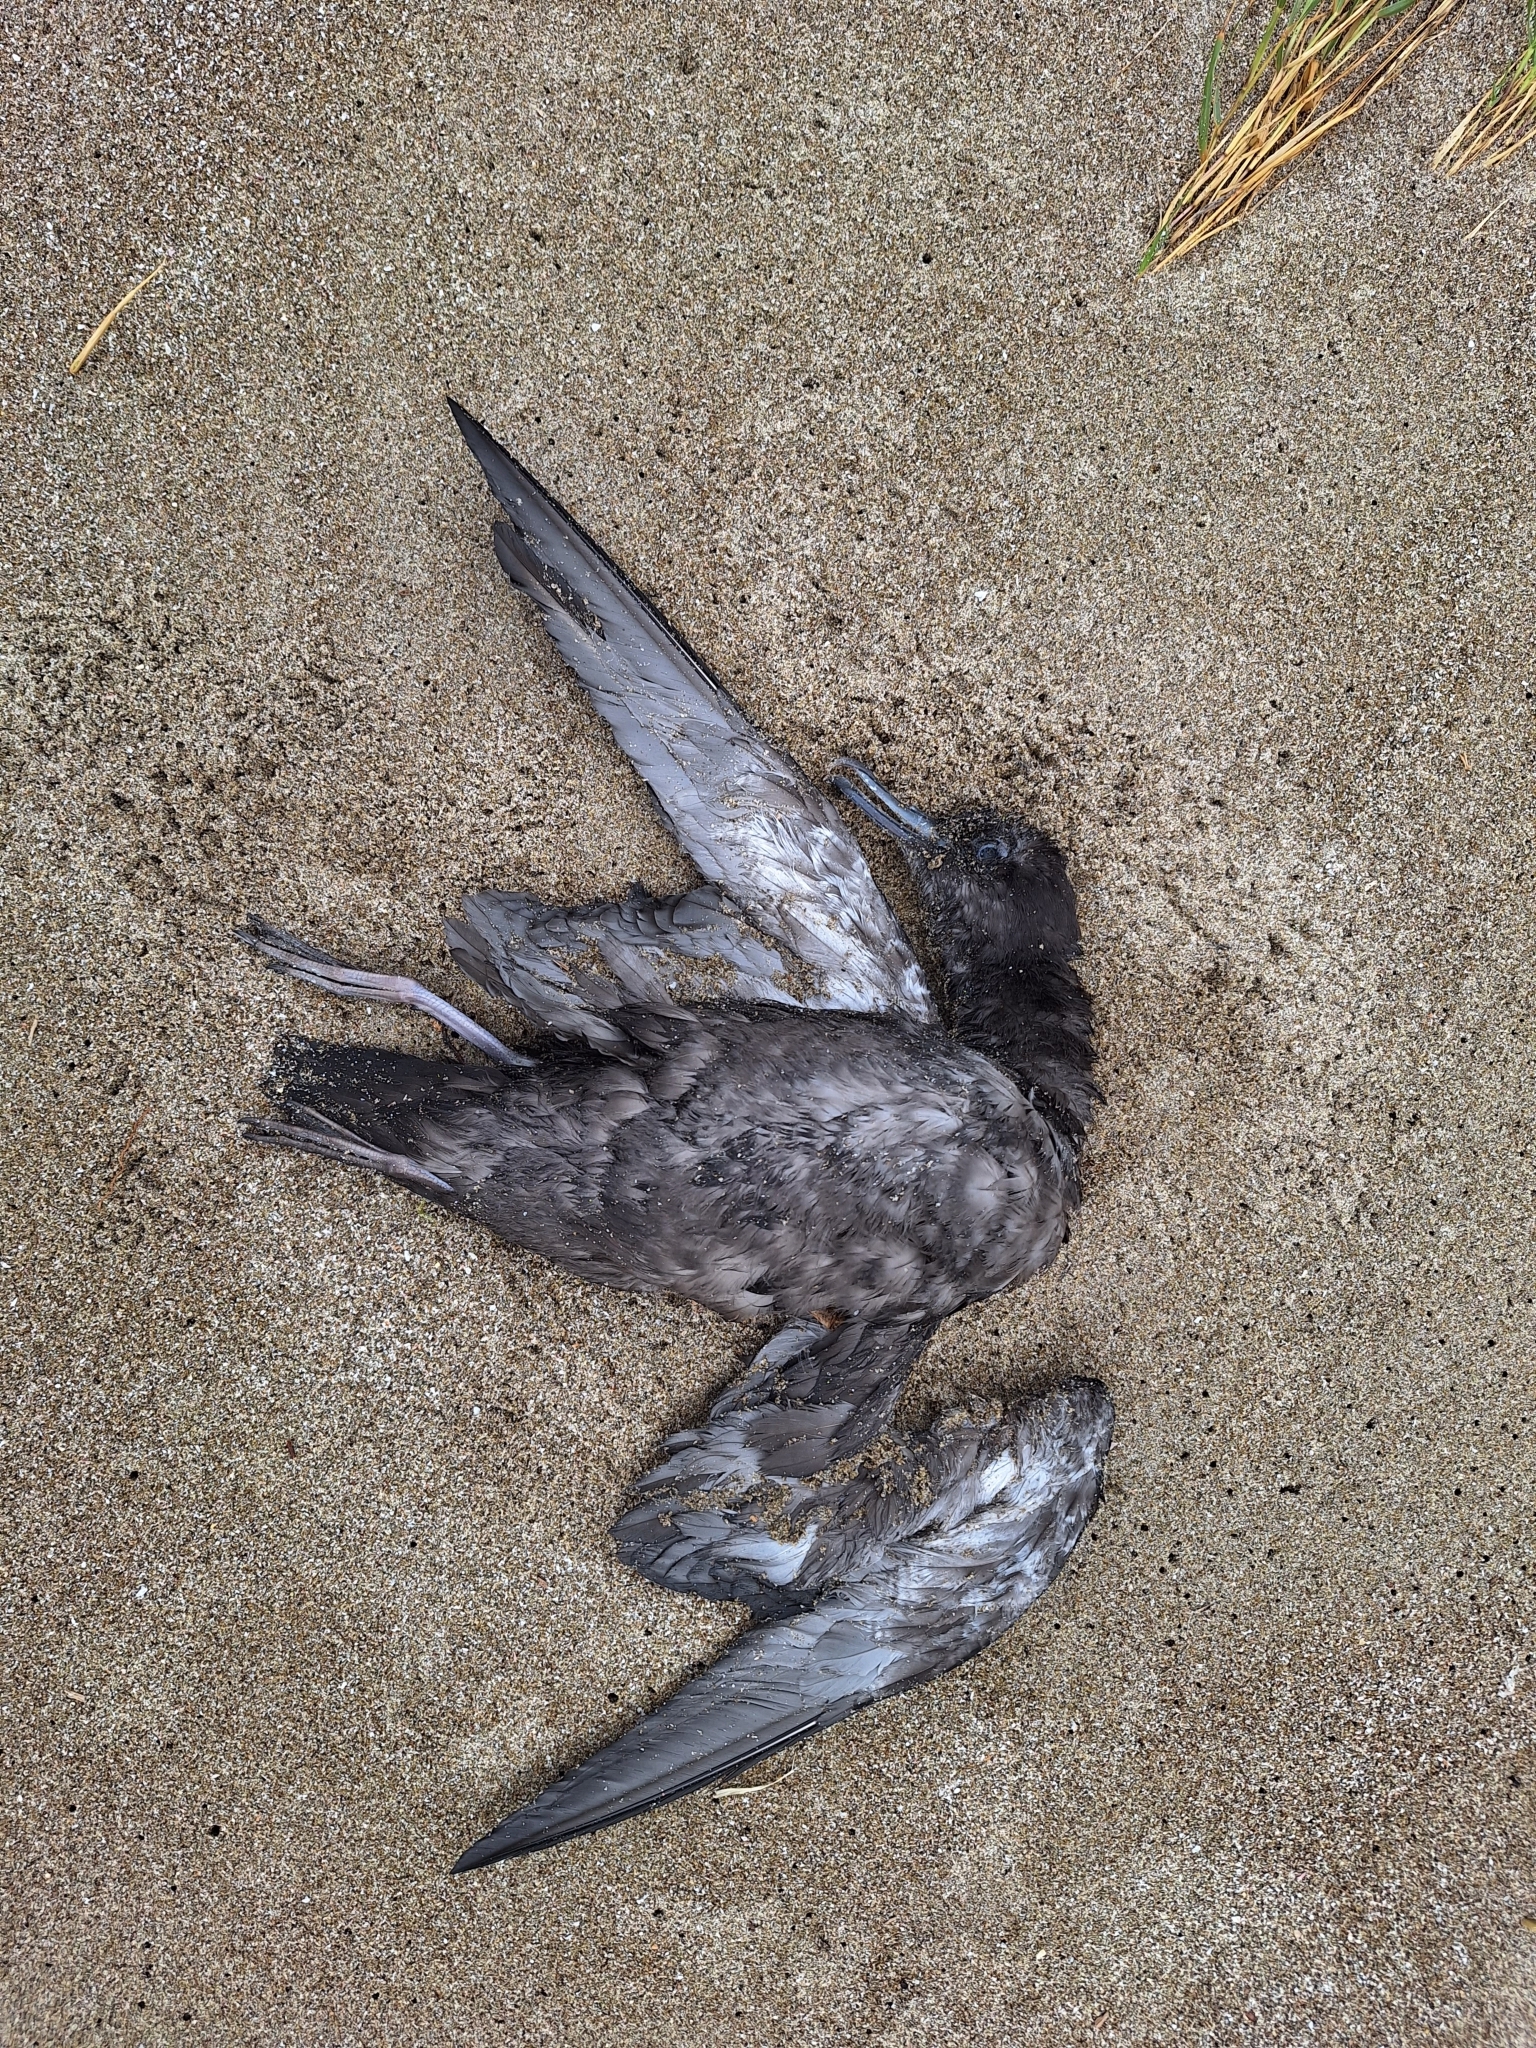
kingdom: Animalia
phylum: Chordata
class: Aves
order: Procellariiformes
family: Procellariidae
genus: Puffinus
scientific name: Puffinus griseus
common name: Sooty shearwater
